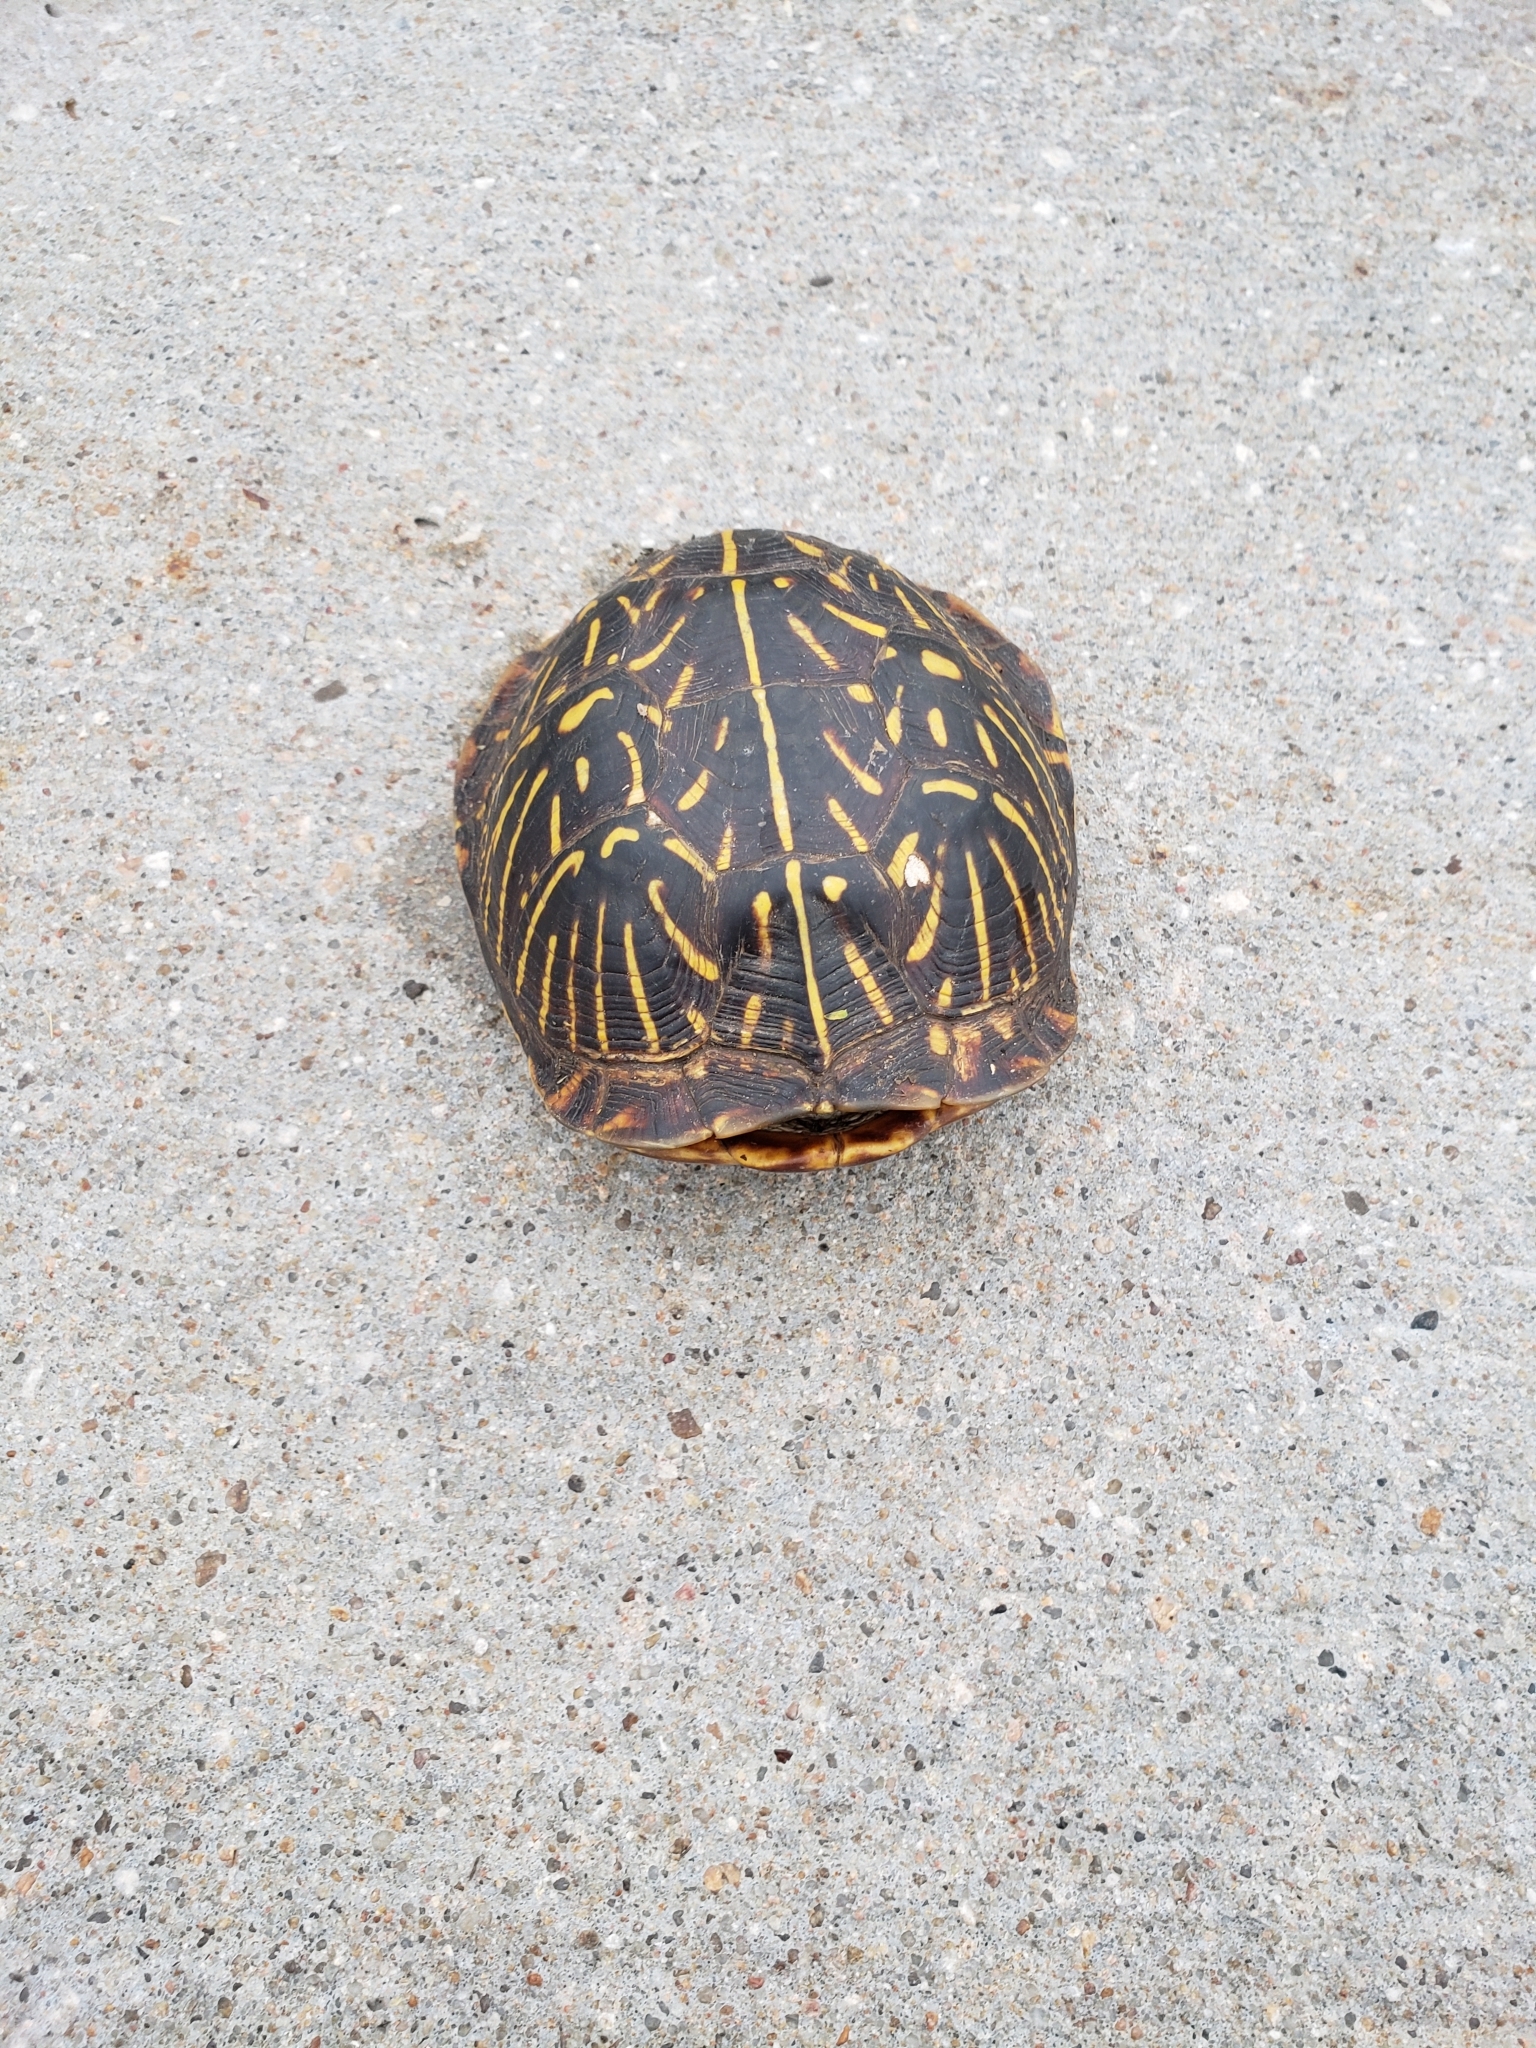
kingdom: Animalia
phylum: Chordata
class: Testudines
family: Emydidae
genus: Terrapene
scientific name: Terrapene ornata
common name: Western box turtle
